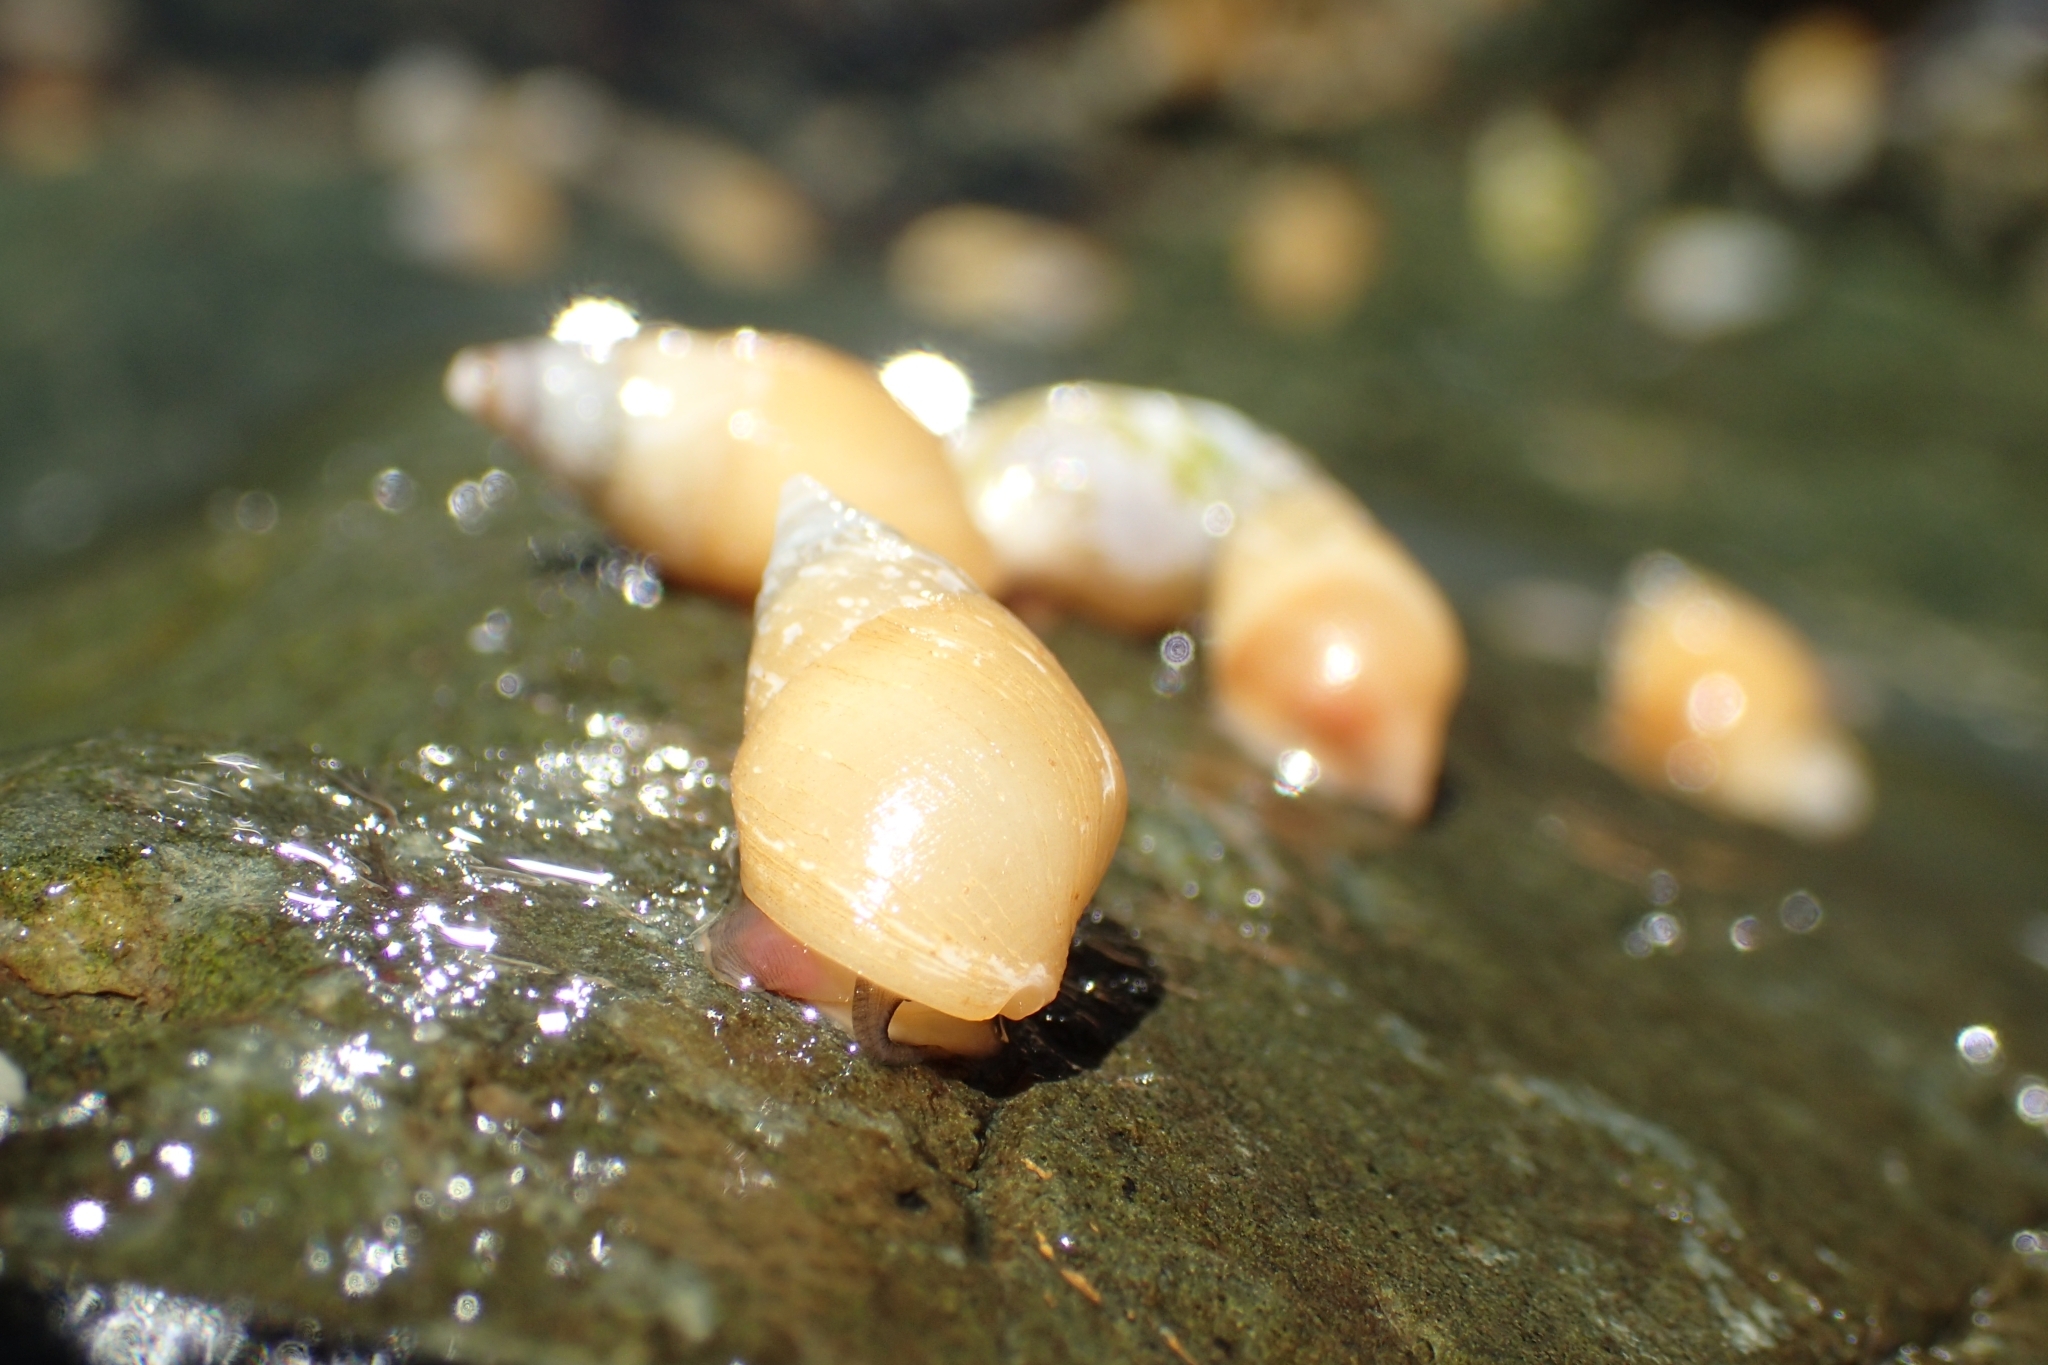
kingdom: Animalia
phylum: Mollusca
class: Gastropoda
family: Planaxidae
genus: Hinea
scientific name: Hinea brasiliana
